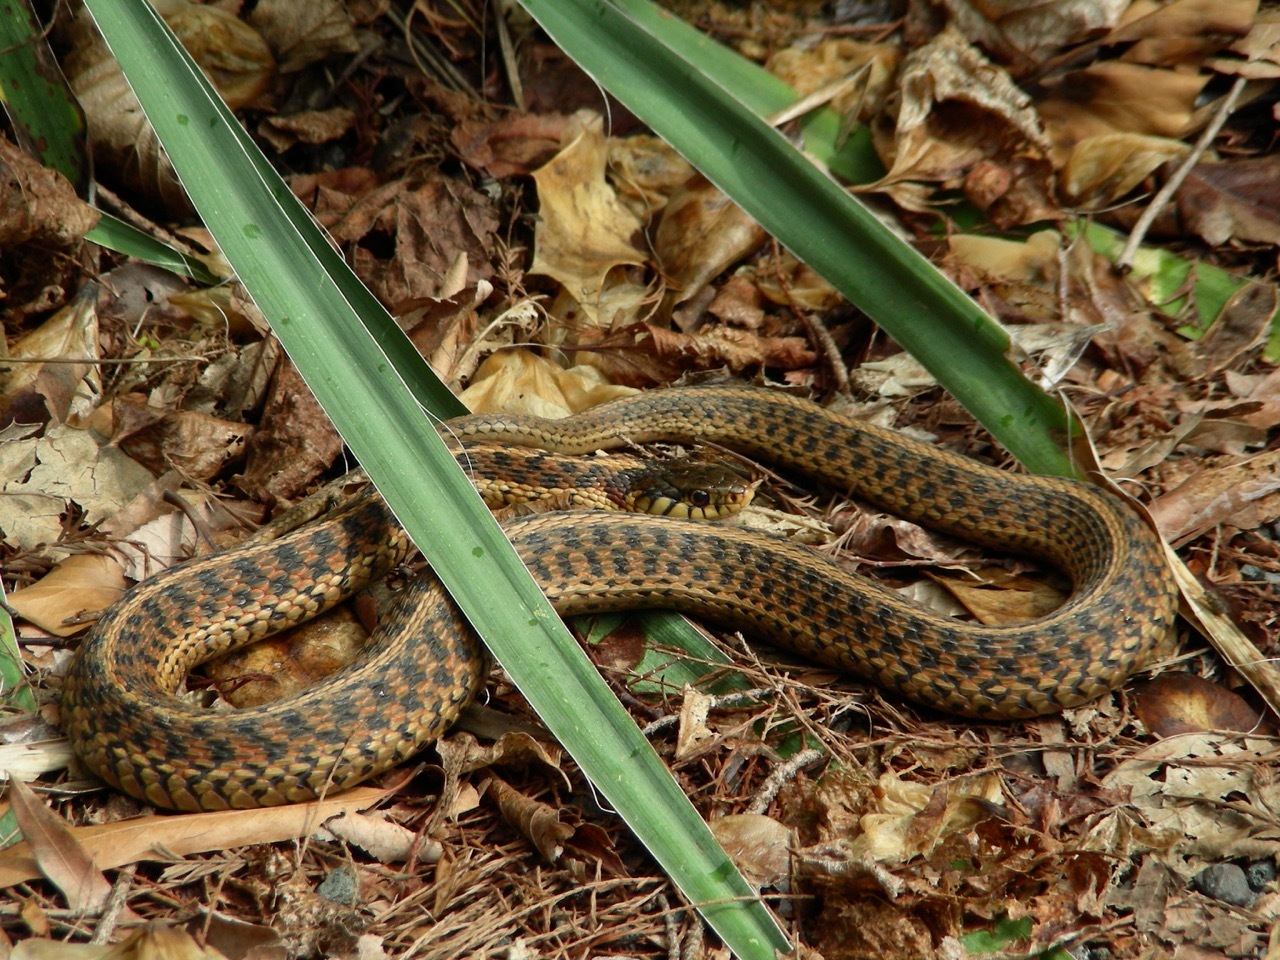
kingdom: Animalia
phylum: Chordata
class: Squamata
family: Colubridae
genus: Thamnophis
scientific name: Thamnophis sirtalis
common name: Common garter snake
